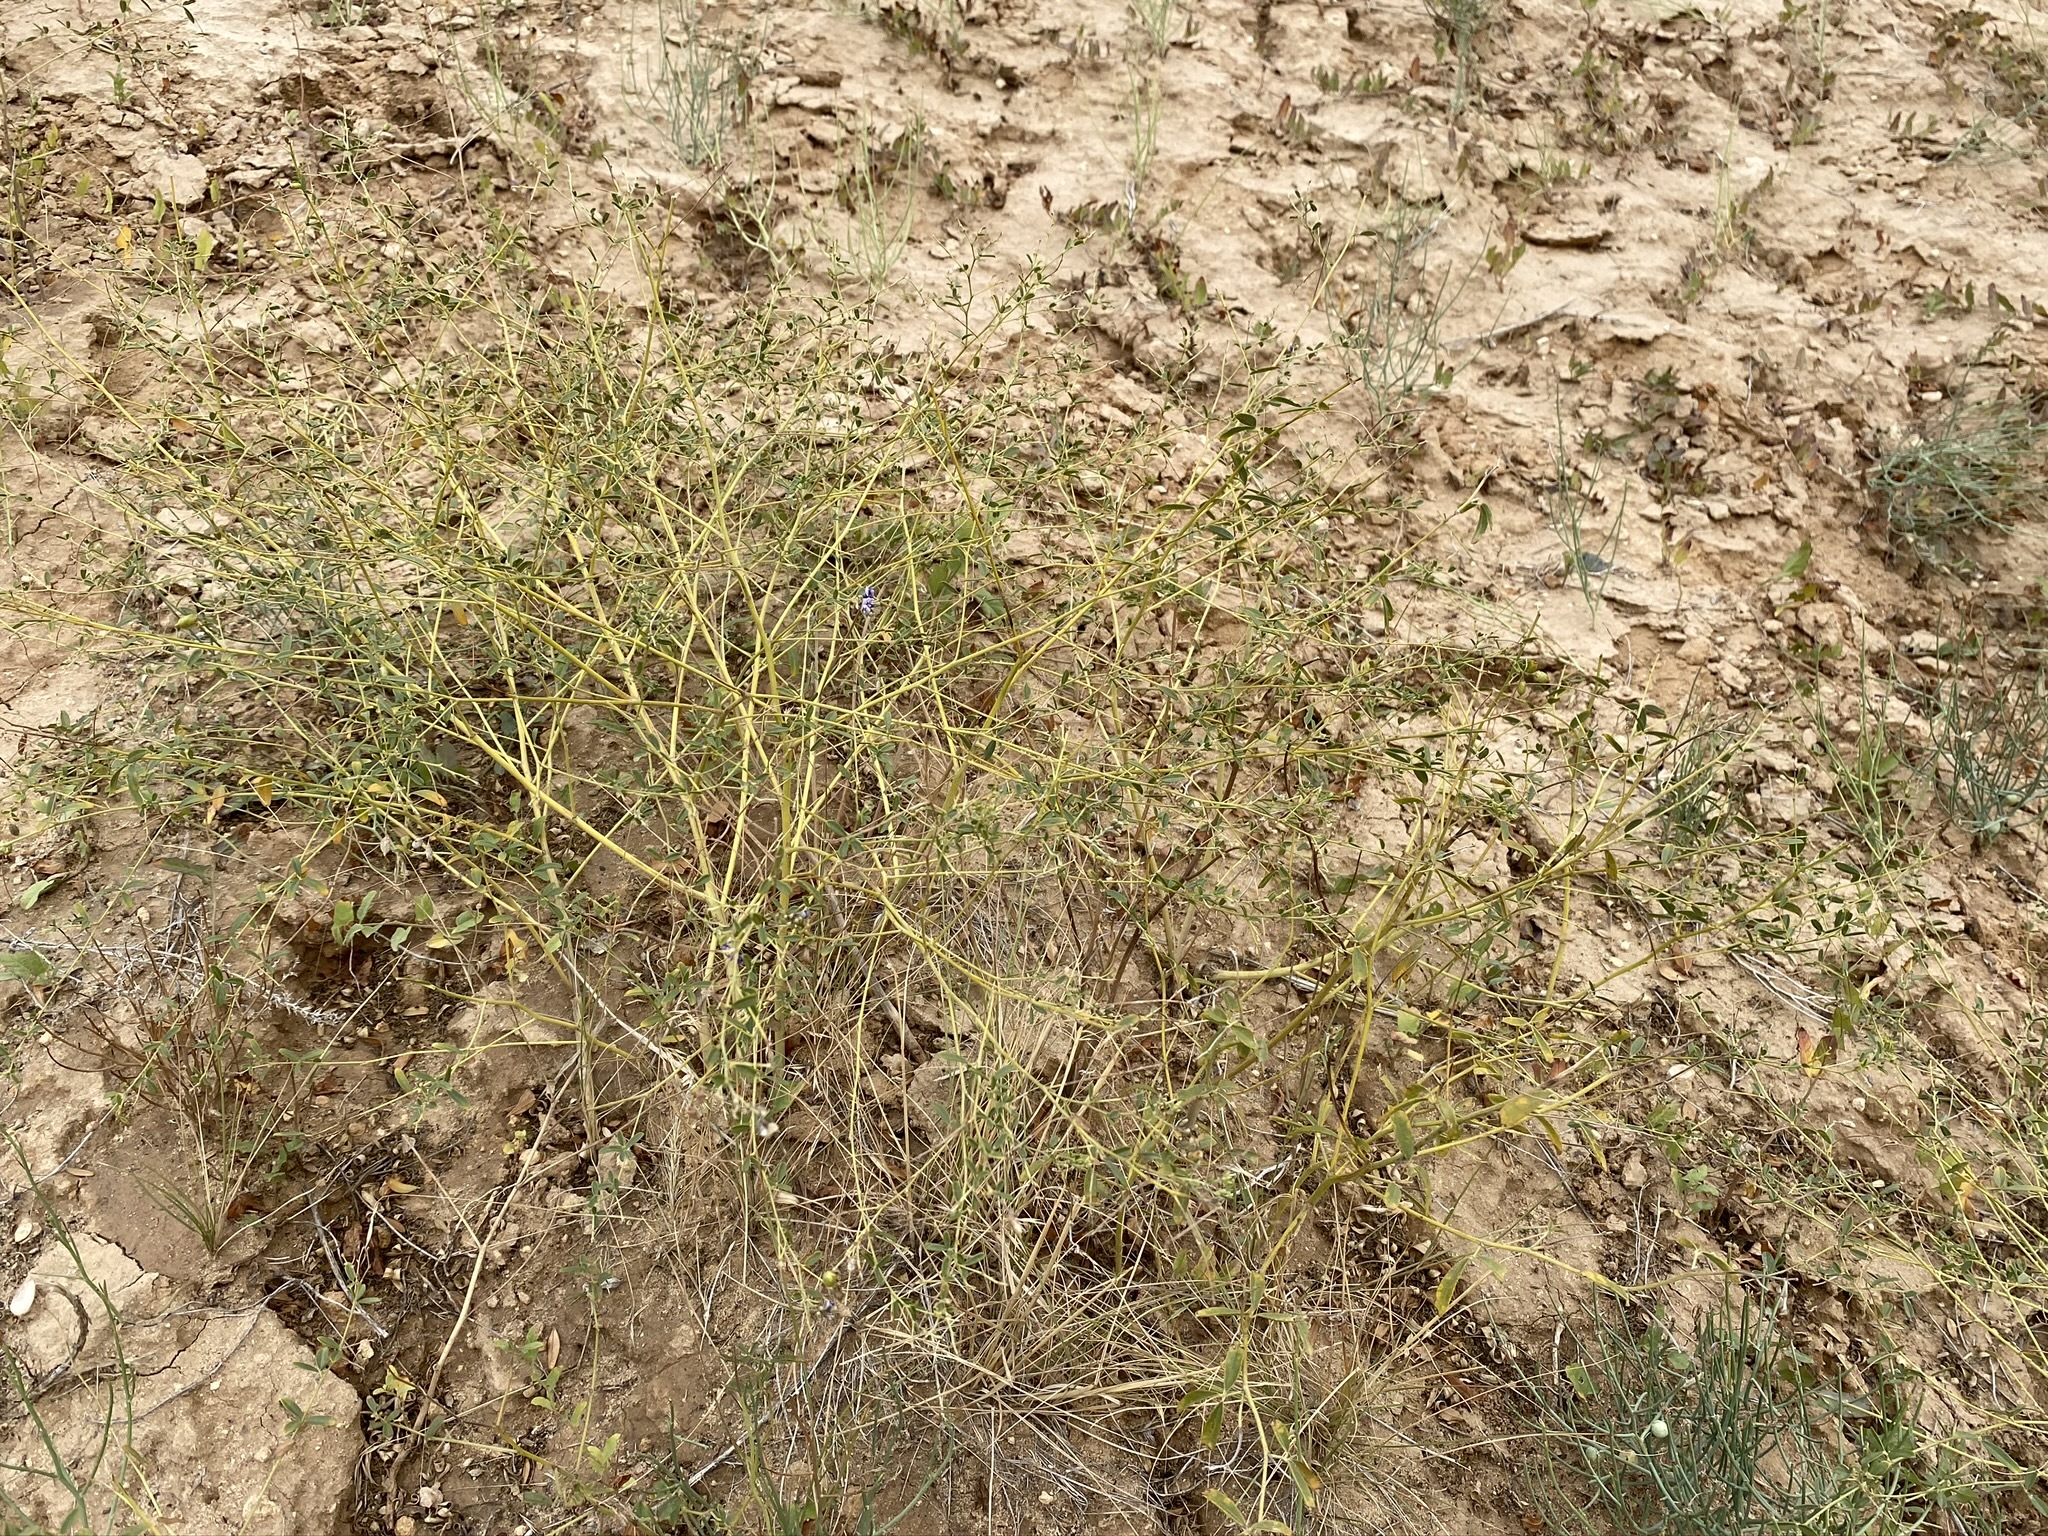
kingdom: Plantae
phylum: Tracheophyta
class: Magnoliopsida
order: Fabales
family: Fabaceae
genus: Pediomelum
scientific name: Pediomelum tenuiflorum
